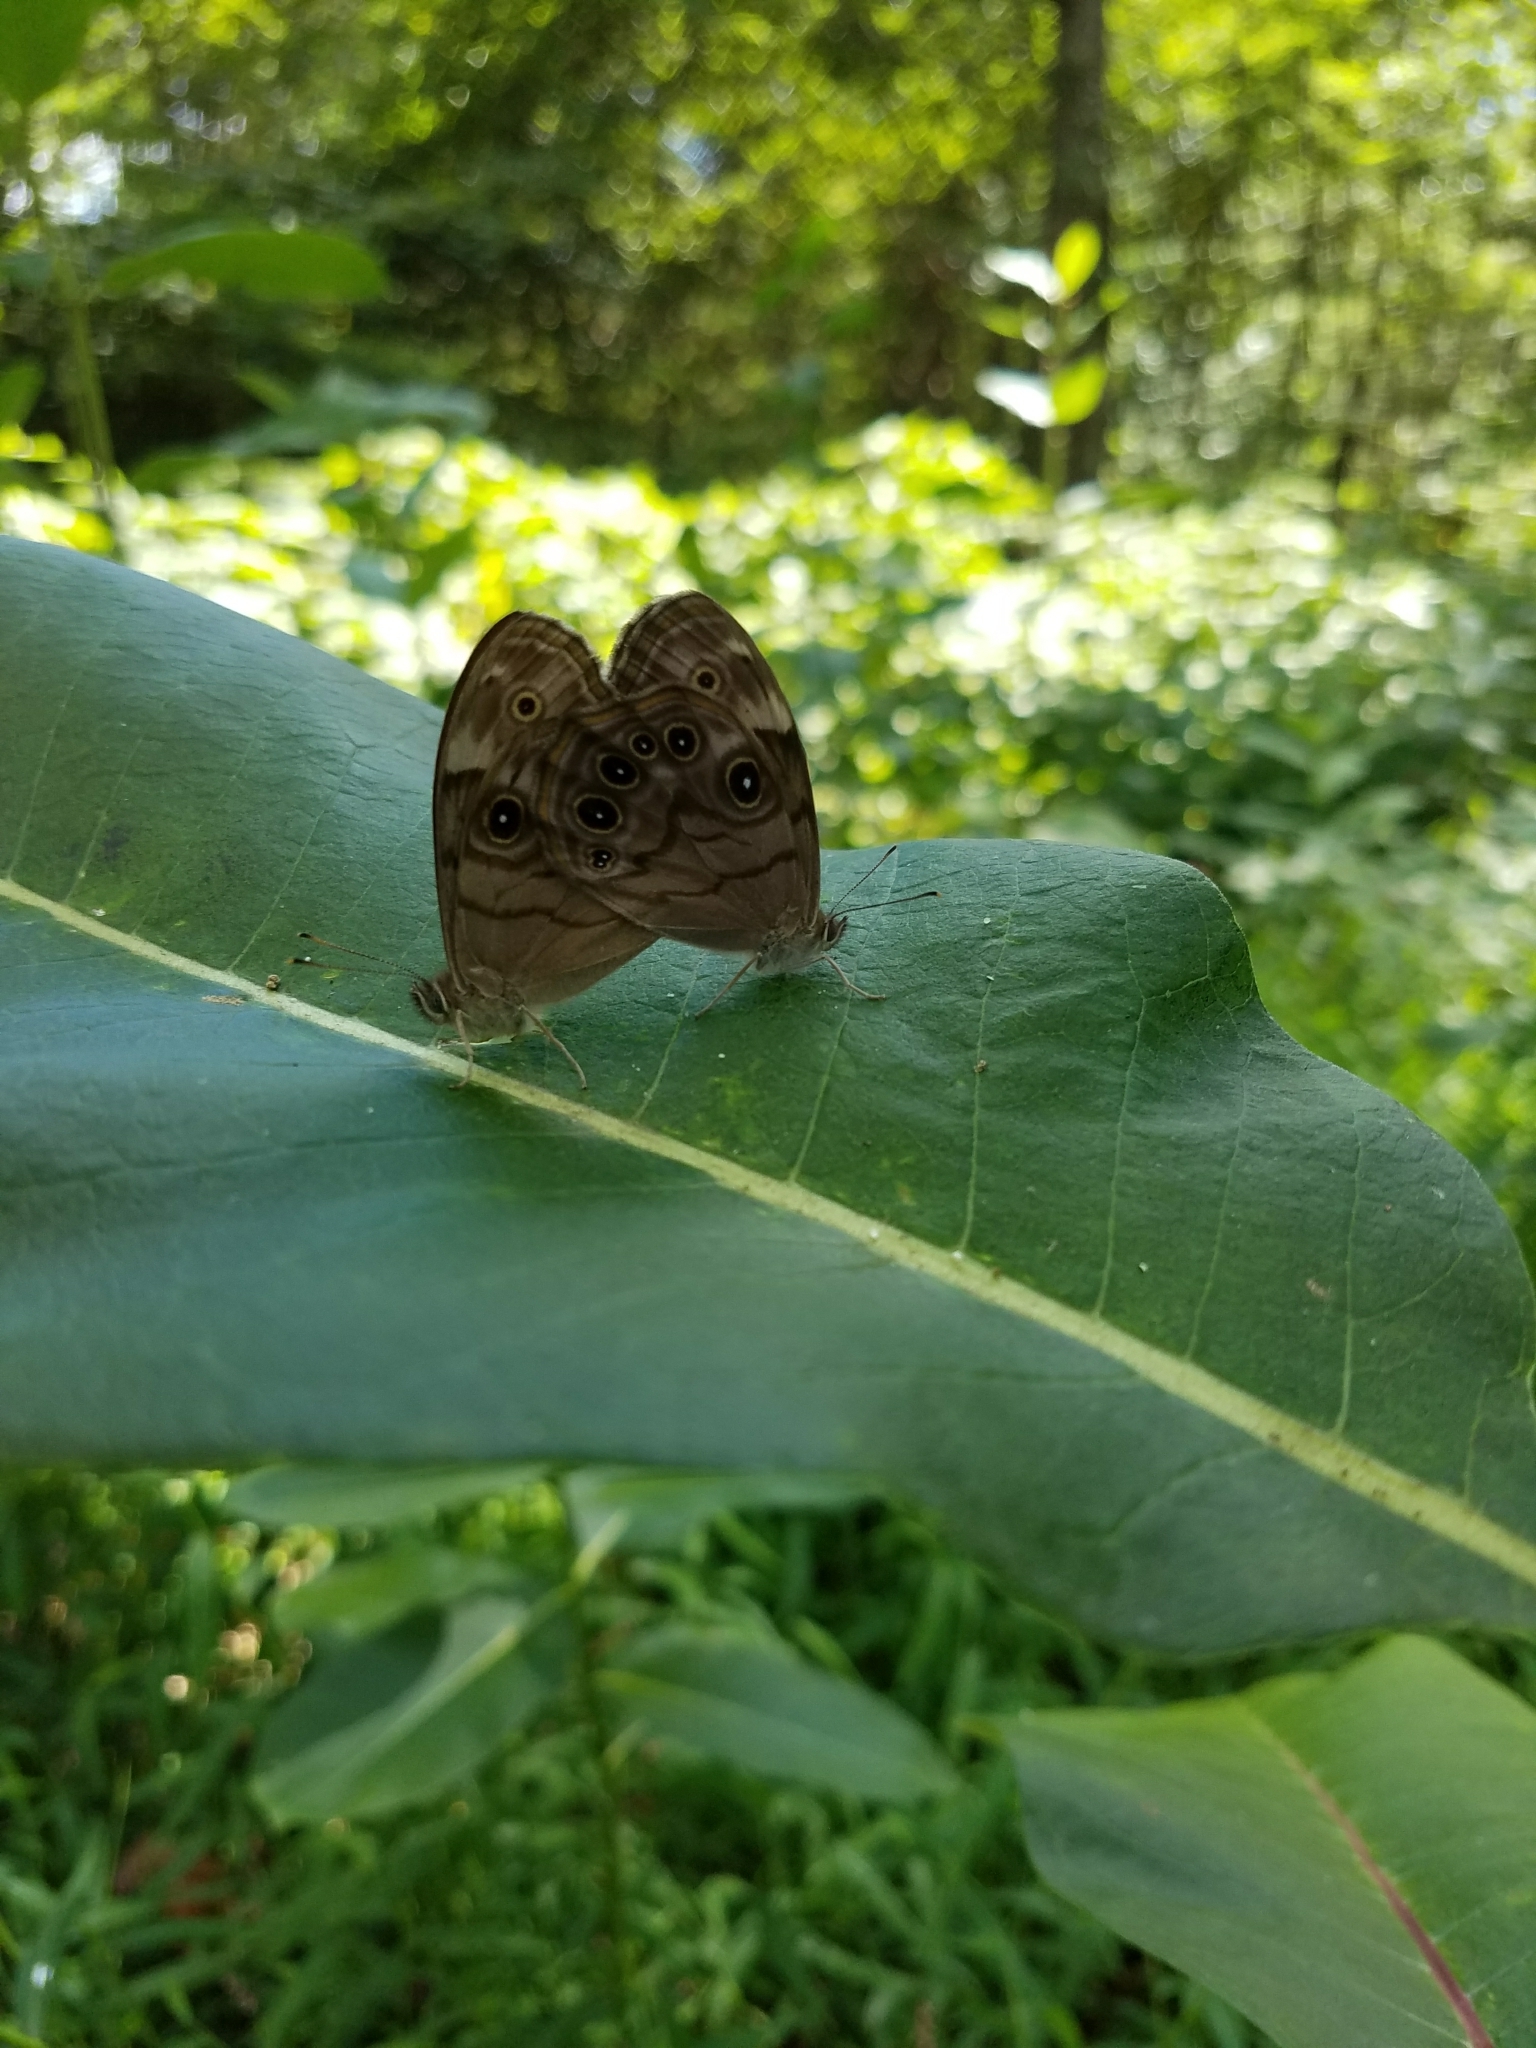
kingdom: Animalia
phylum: Arthropoda
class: Insecta
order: Lepidoptera
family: Nymphalidae
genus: Lethe
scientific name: Lethe anthedon
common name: Northern pearly-eye
